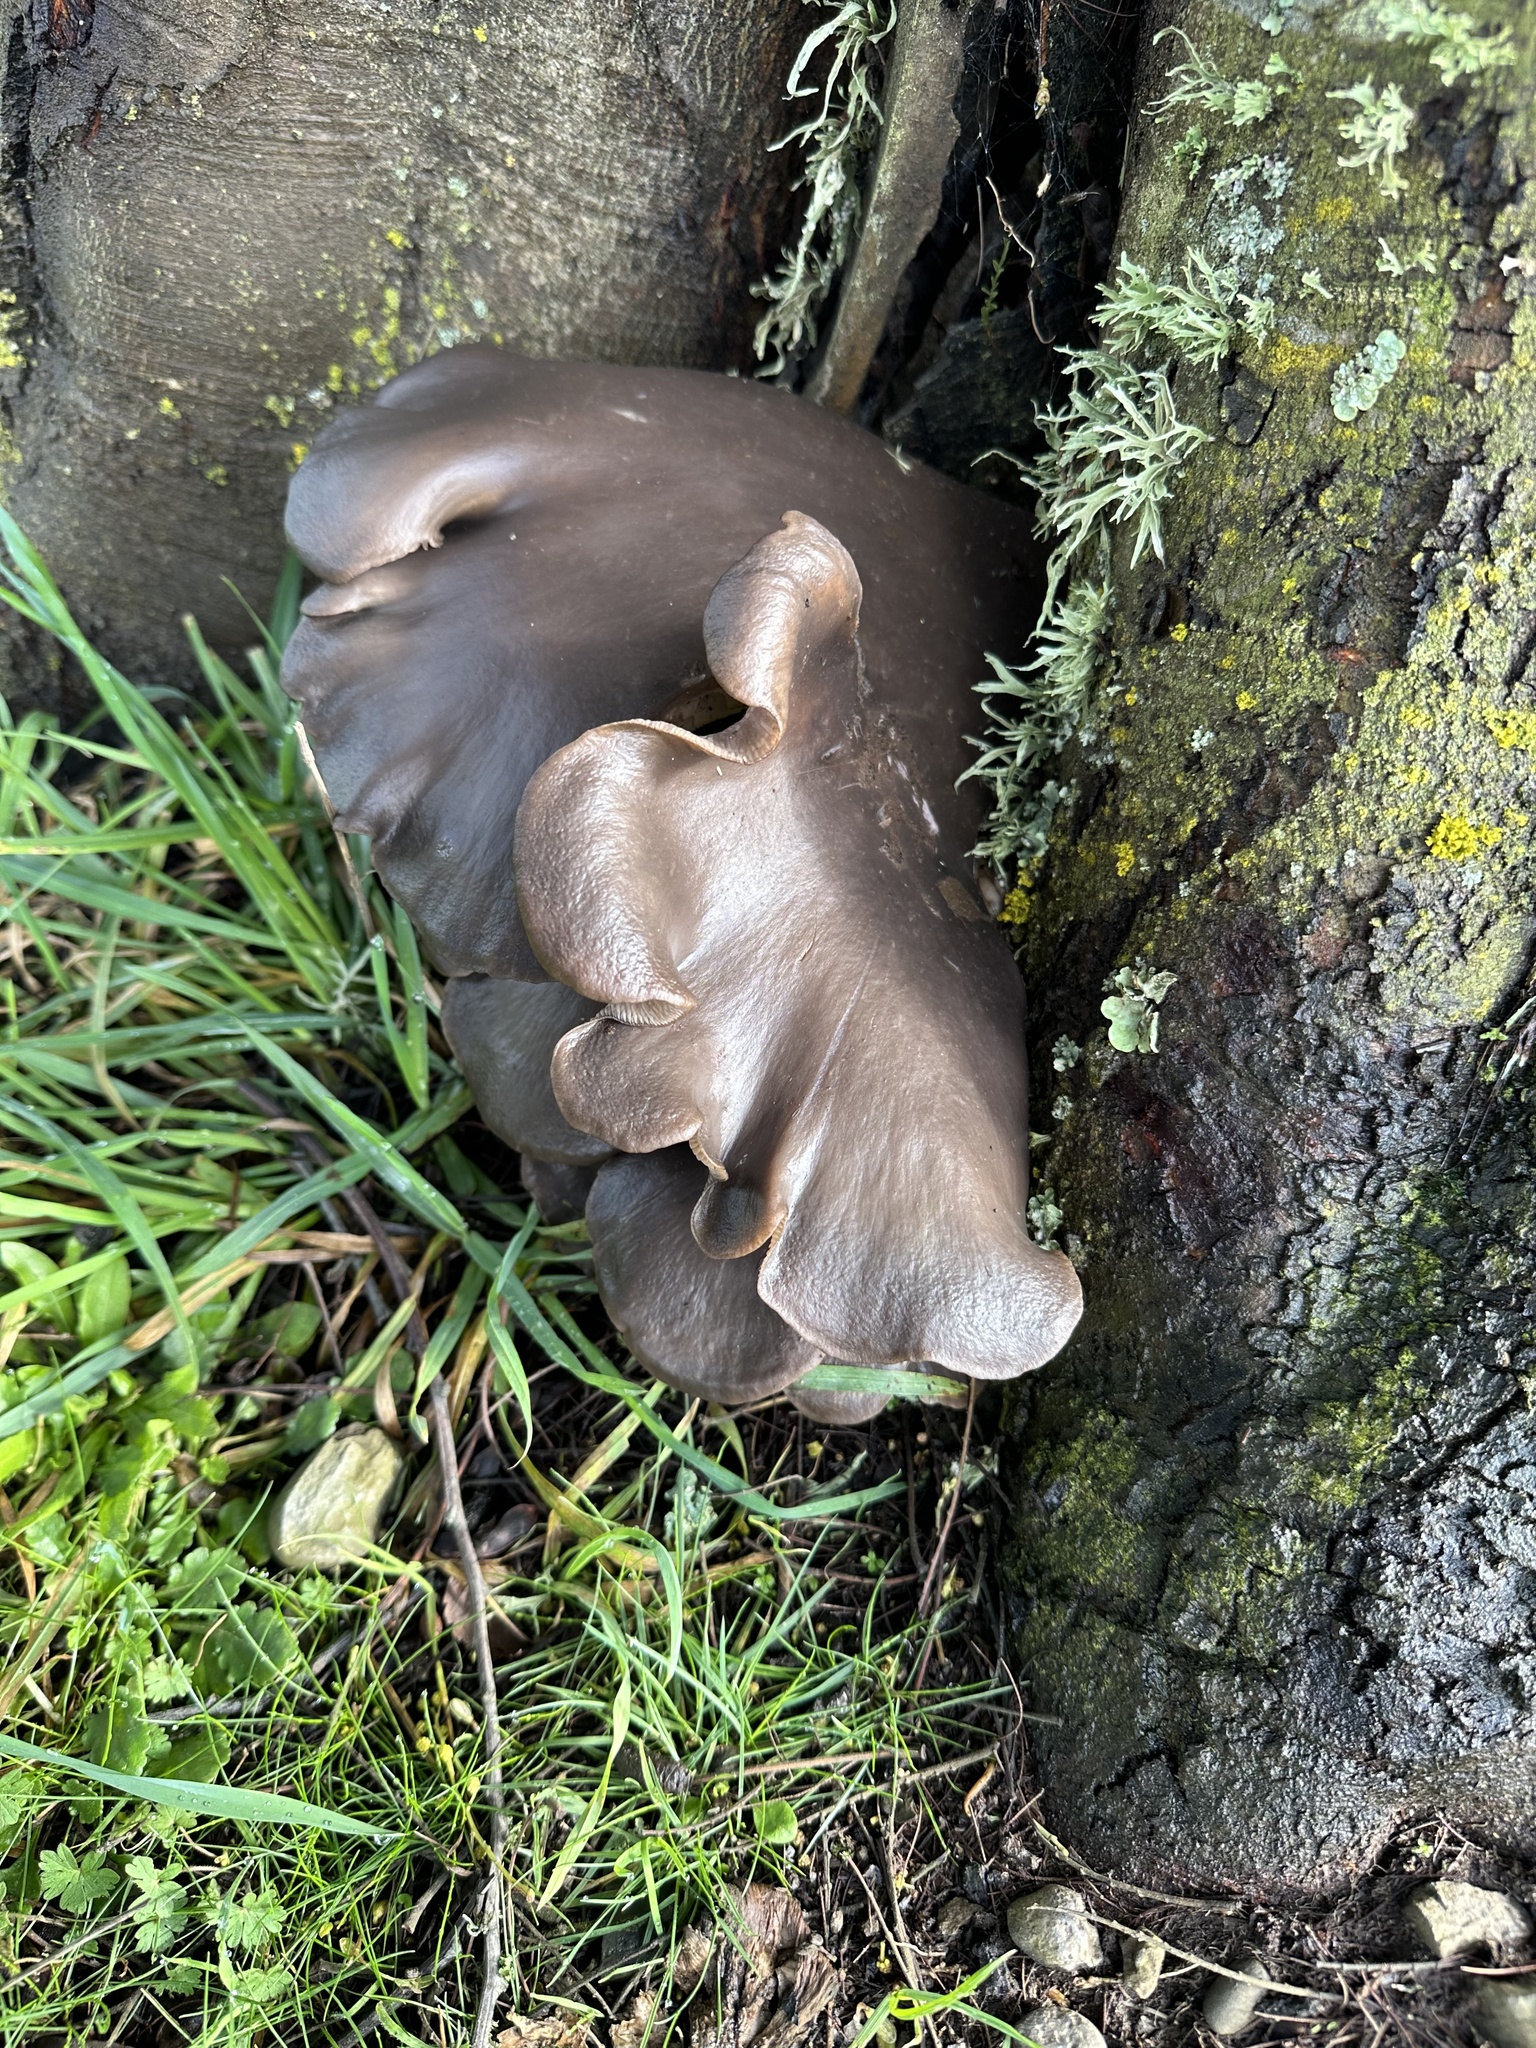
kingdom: Fungi
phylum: Basidiomycota
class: Agaricomycetes
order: Agaricales
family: Pleurotaceae
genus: Pleurotus
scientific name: Pleurotus ostreatus
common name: Oyster mushroom
